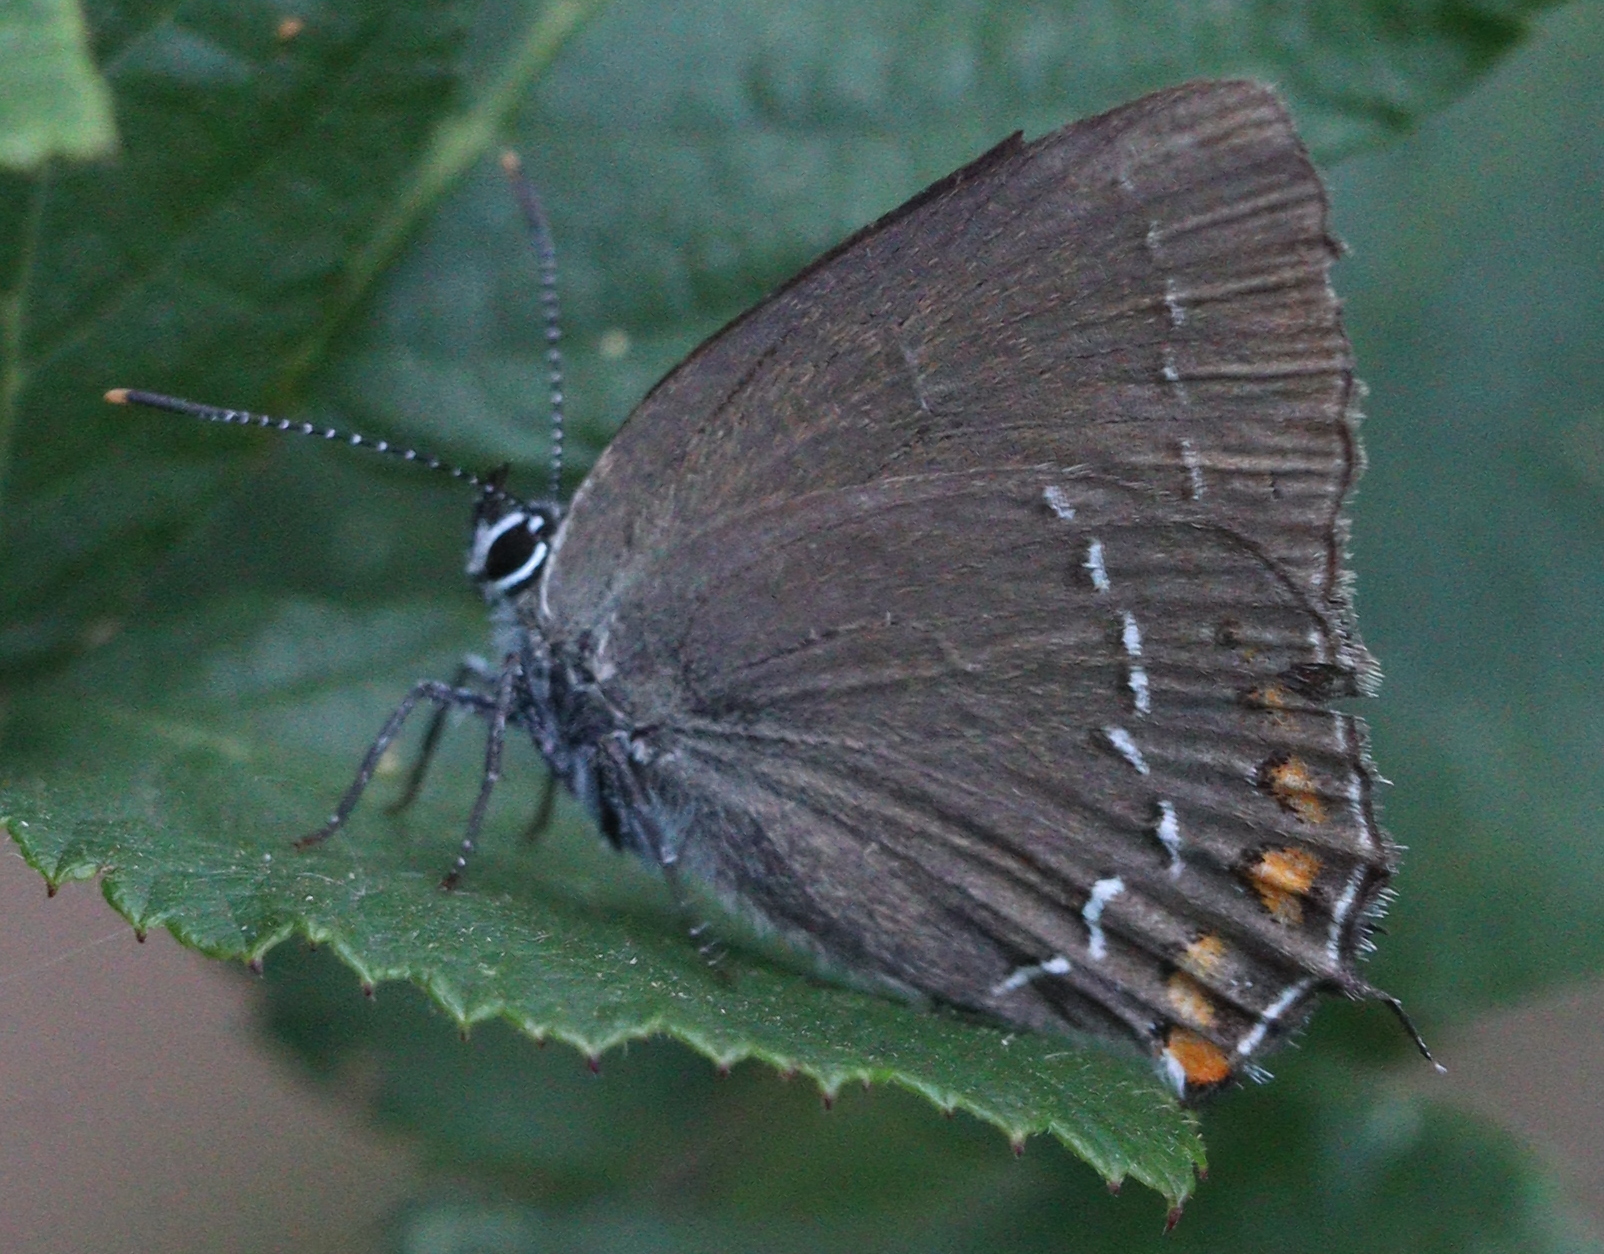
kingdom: Animalia
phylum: Arthropoda
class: Insecta
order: Lepidoptera
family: Lycaenidae
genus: Nordmannia
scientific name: Nordmannia ilicis
